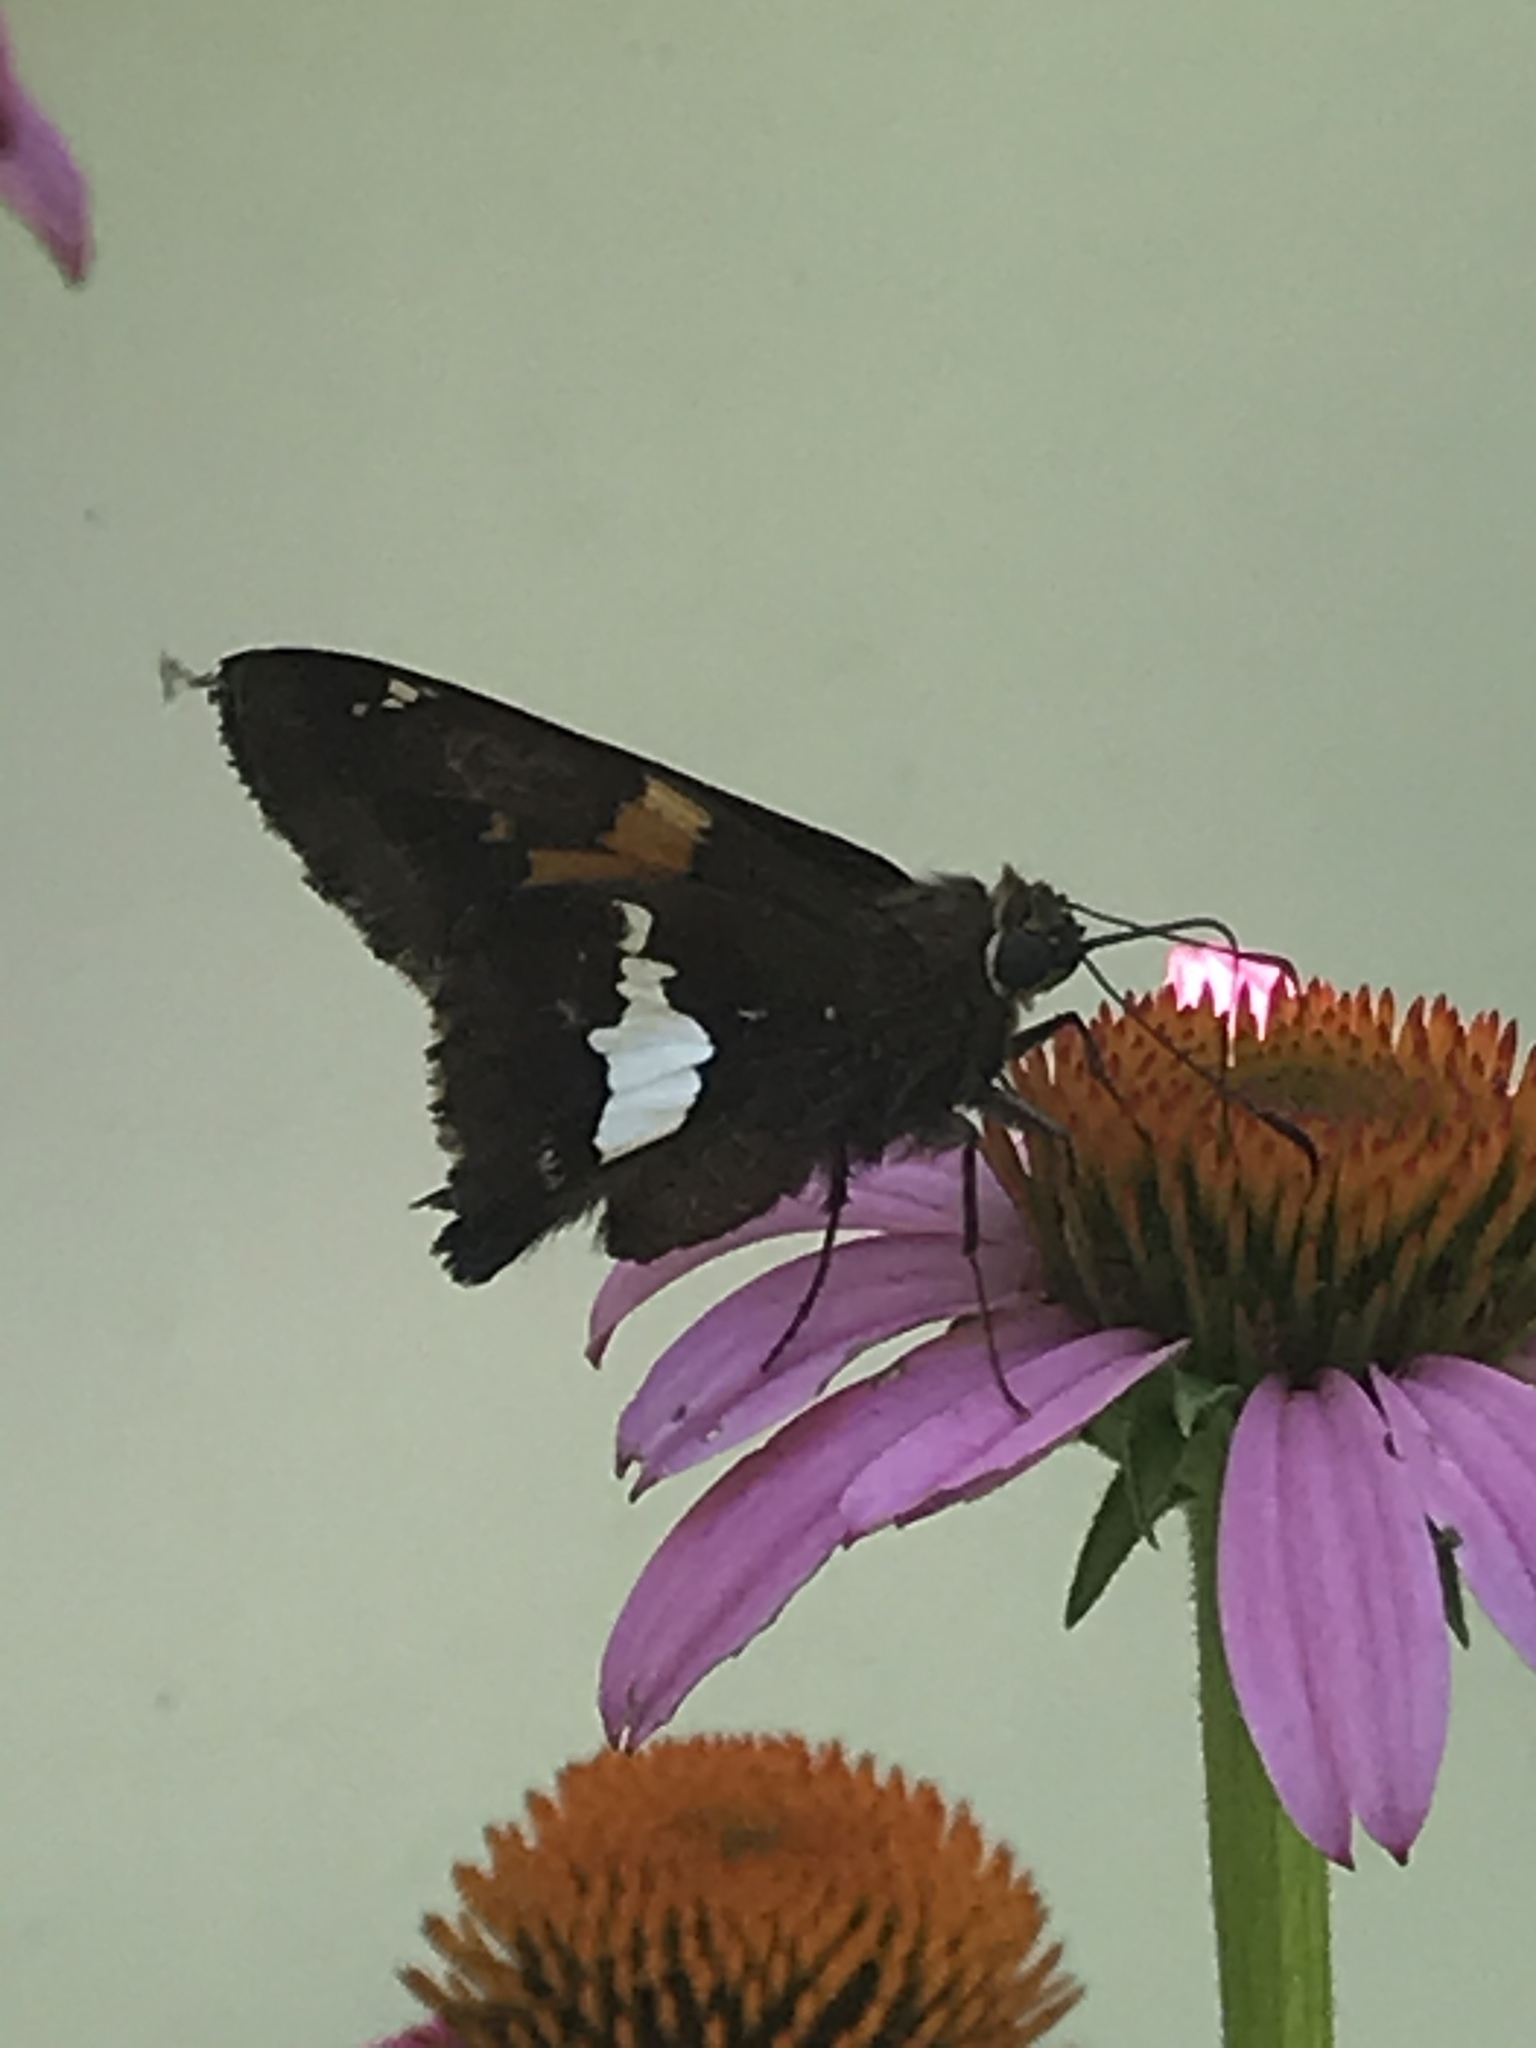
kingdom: Animalia
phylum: Arthropoda
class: Insecta
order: Lepidoptera
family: Hesperiidae
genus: Epargyreus
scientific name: Epargyreus clarus
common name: Silver-spotted skipper
